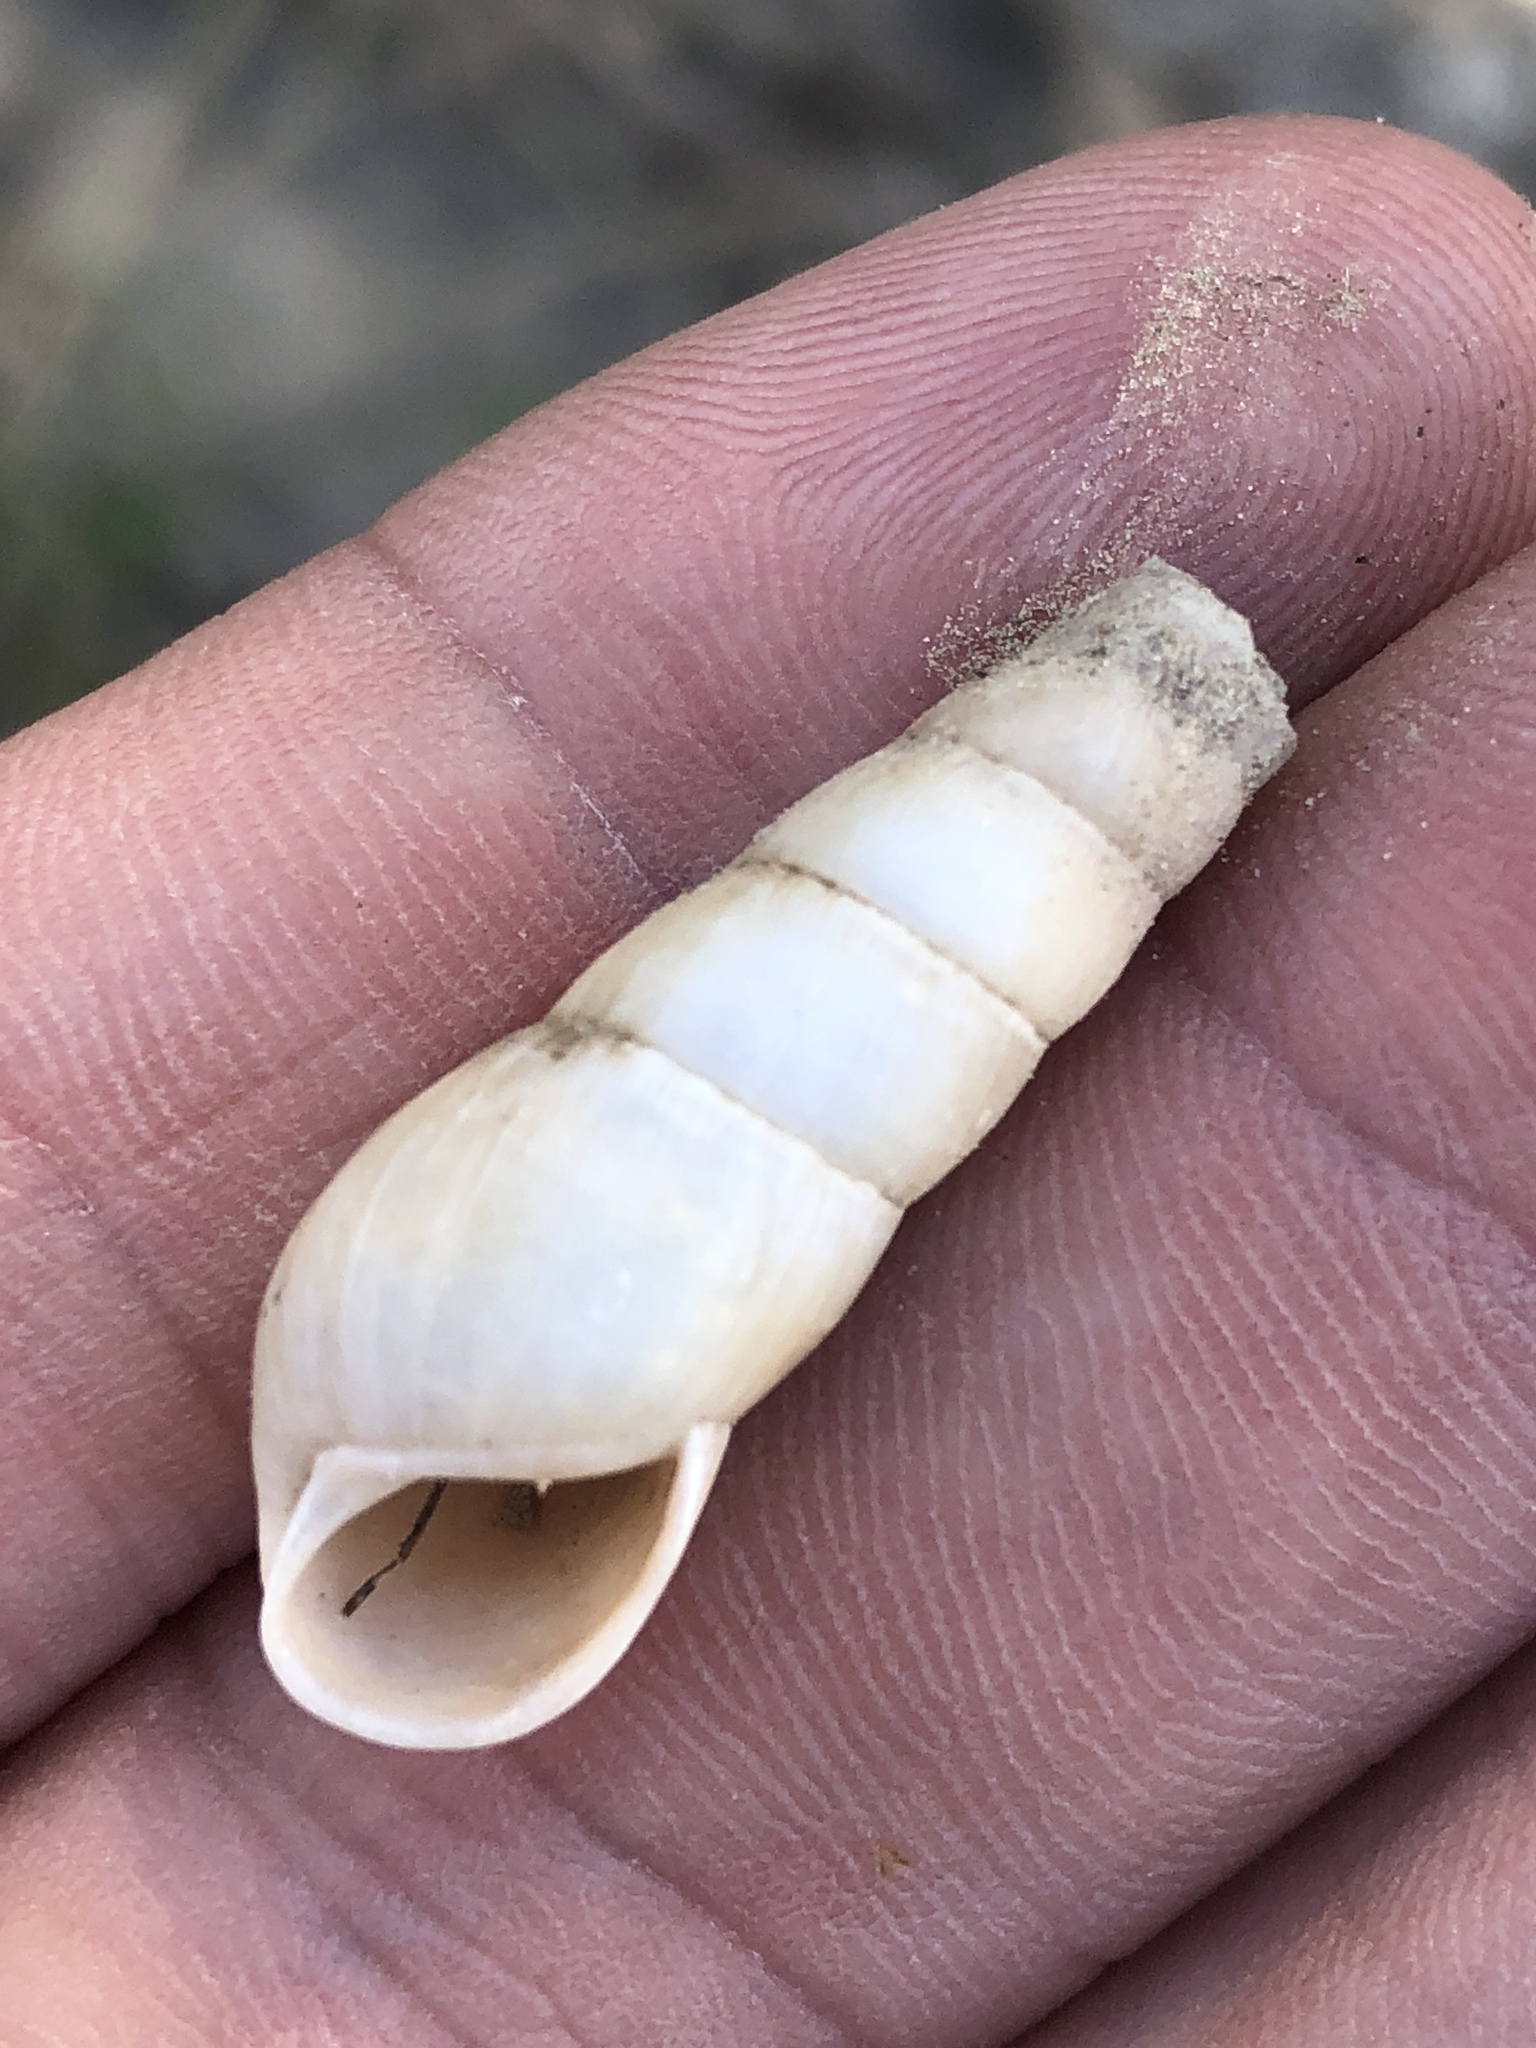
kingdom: Animalia
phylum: Mollusca
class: Gastropoda
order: Stylommatophora
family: Achatinidae
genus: Rumina
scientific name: Rumina decollata
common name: Decollate snail
